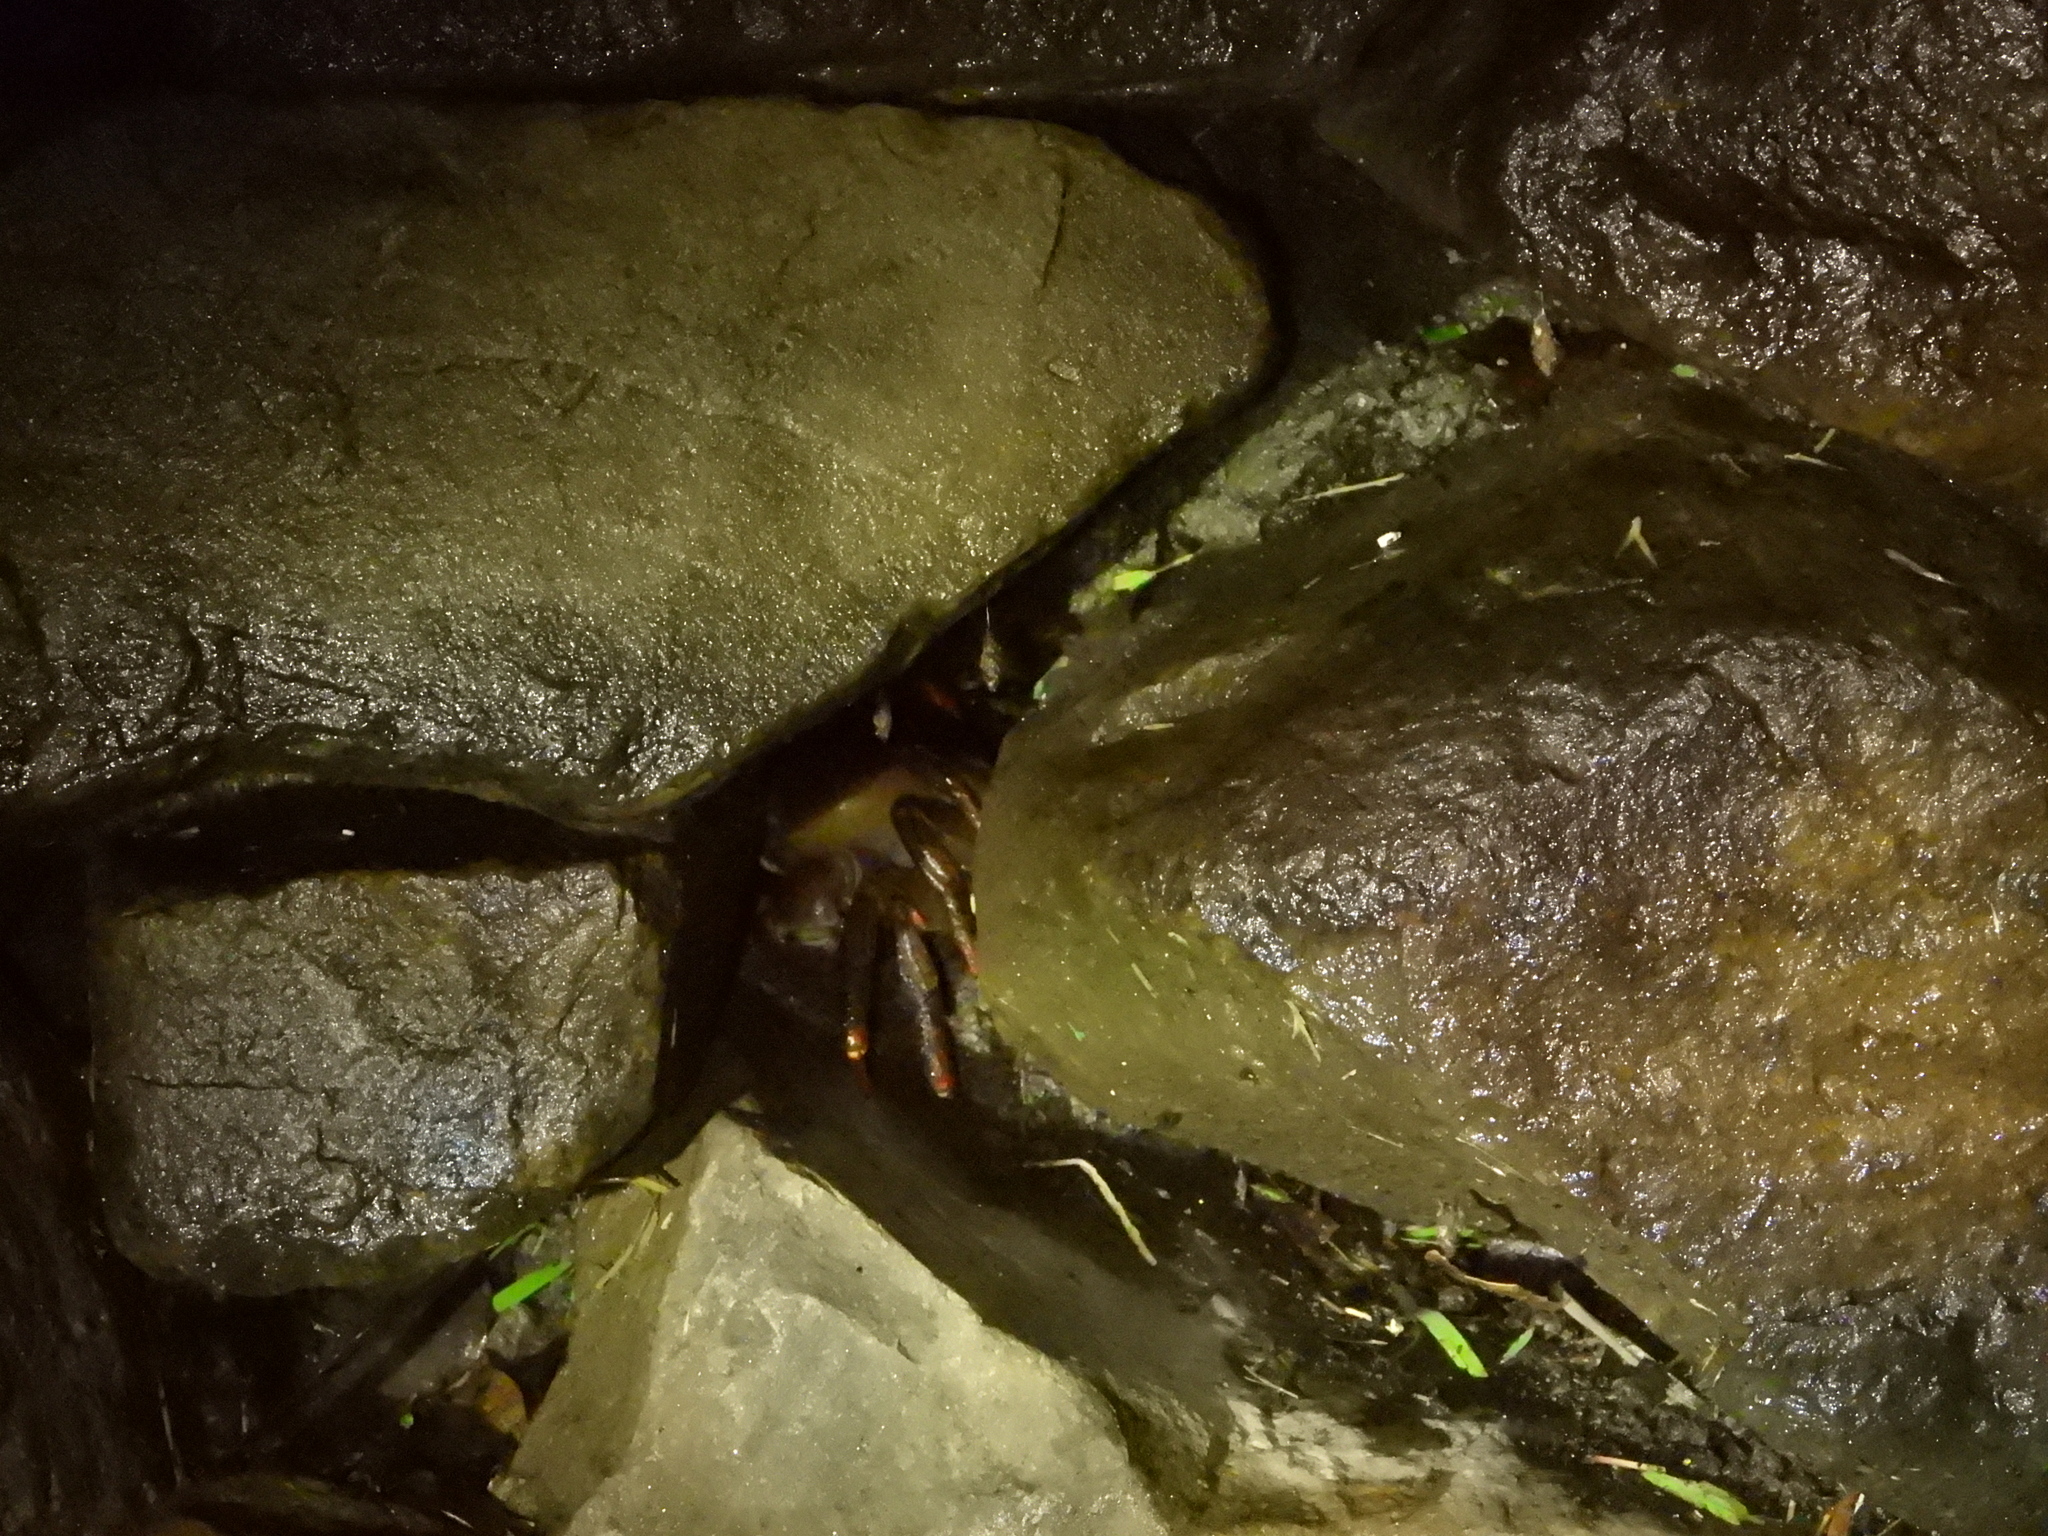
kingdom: Animalia
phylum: Arthropoda
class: Malacostraca
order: Decapoda
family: Gecarcinidae
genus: Cardisoma
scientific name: Cardisoma carnifex
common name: Brown land crab
